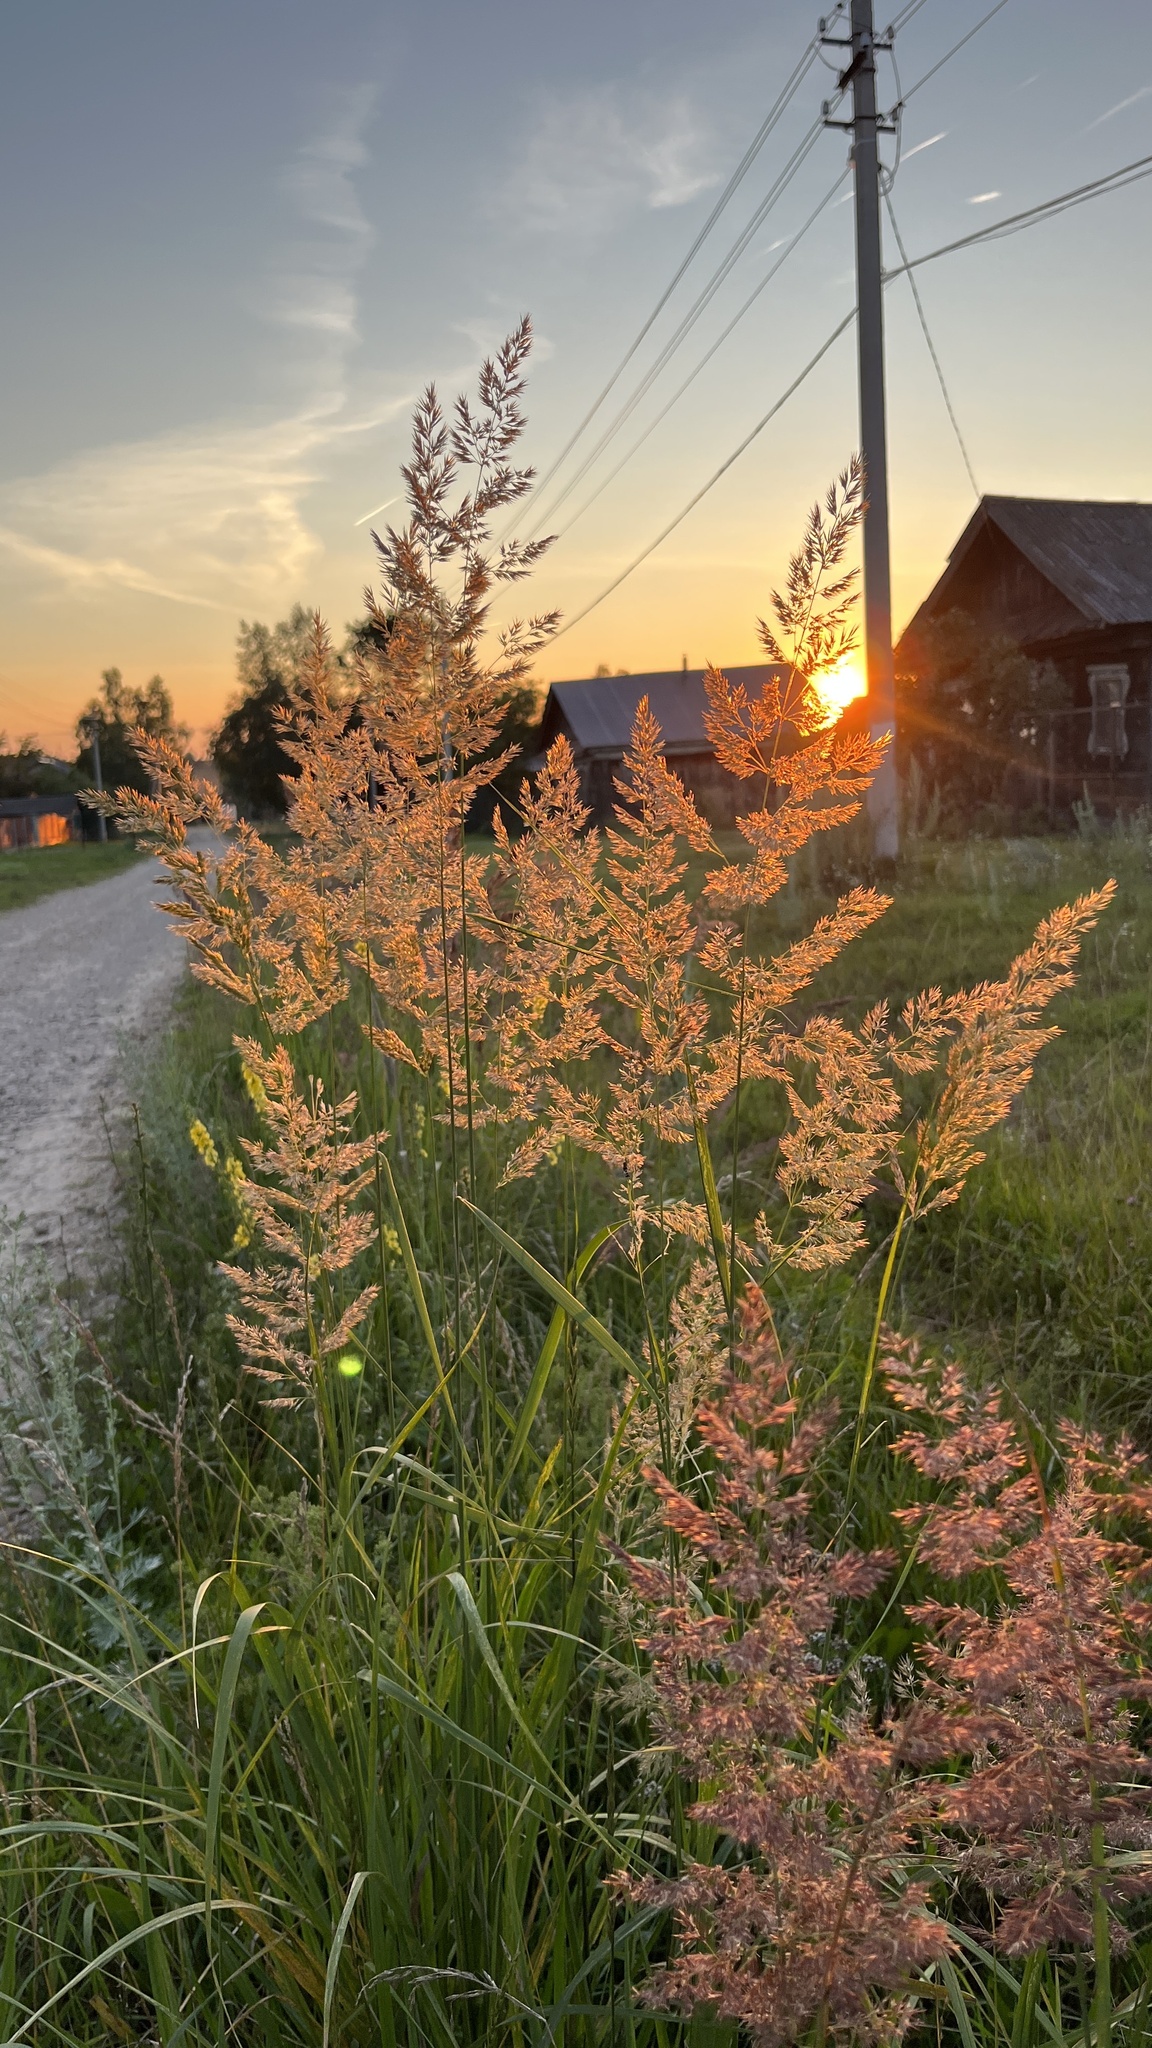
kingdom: Plantae
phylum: Tracheophyta
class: Liliopsida
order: Poales
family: Poaceae
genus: Calamagrostis
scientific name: Calamagrostis epigejos
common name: Wood small-reed
